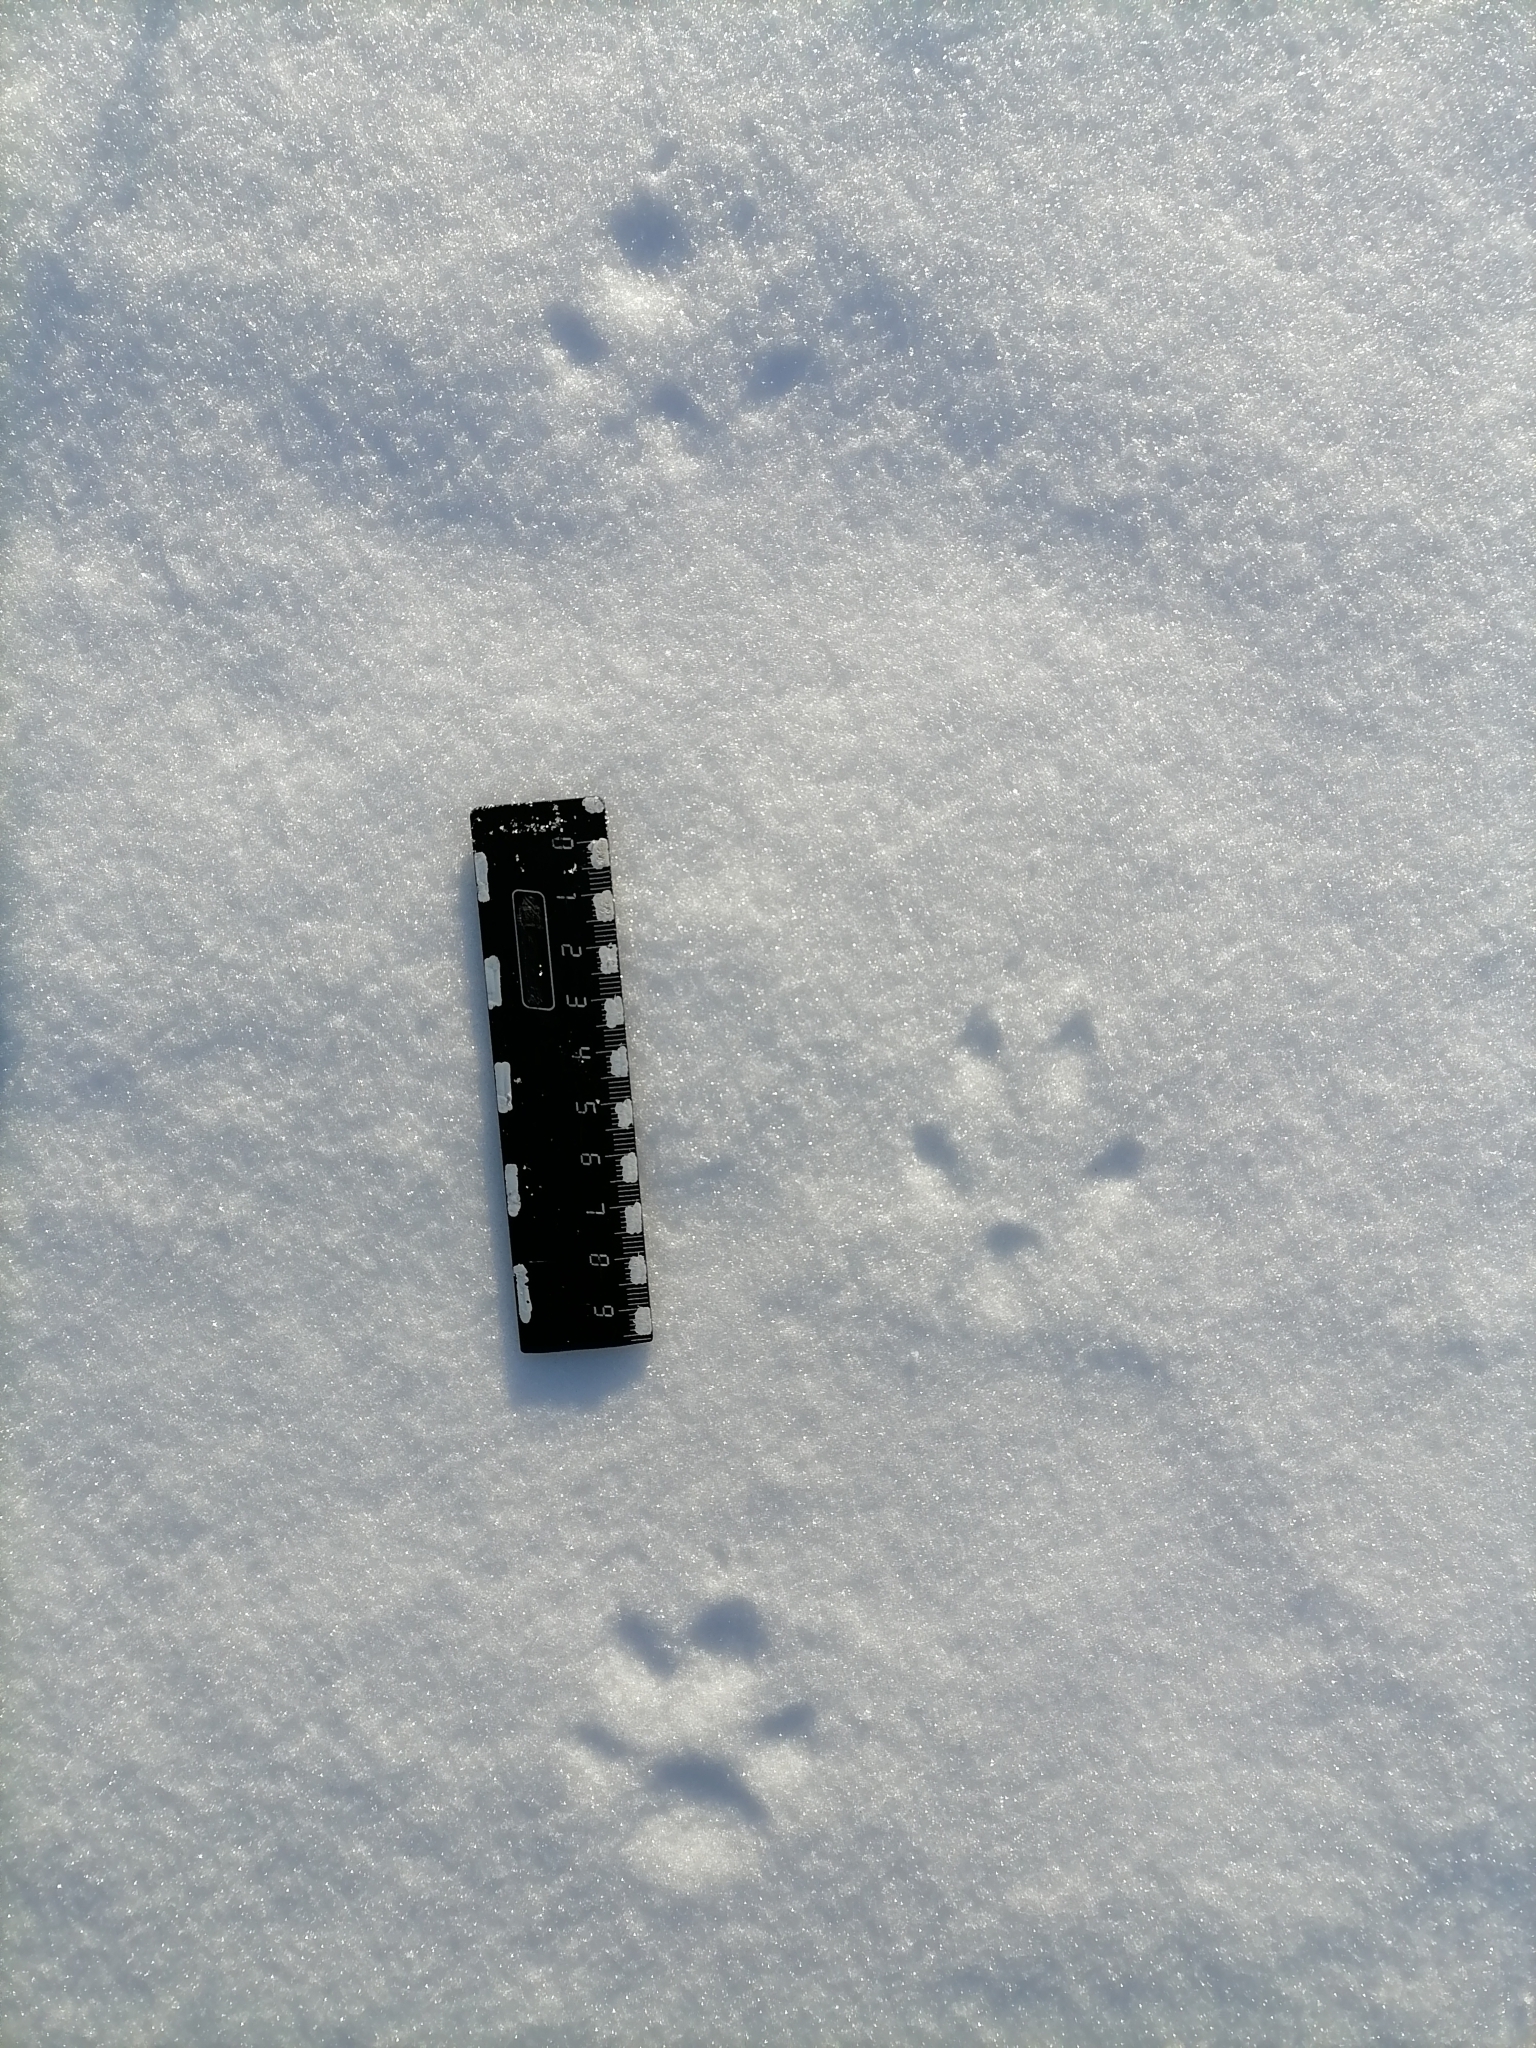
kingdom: Animalia
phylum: Chordata
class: Mammalia
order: Carnivora
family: Canidae
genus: Vulpes
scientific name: Vulpes vulpes
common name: Red fox
